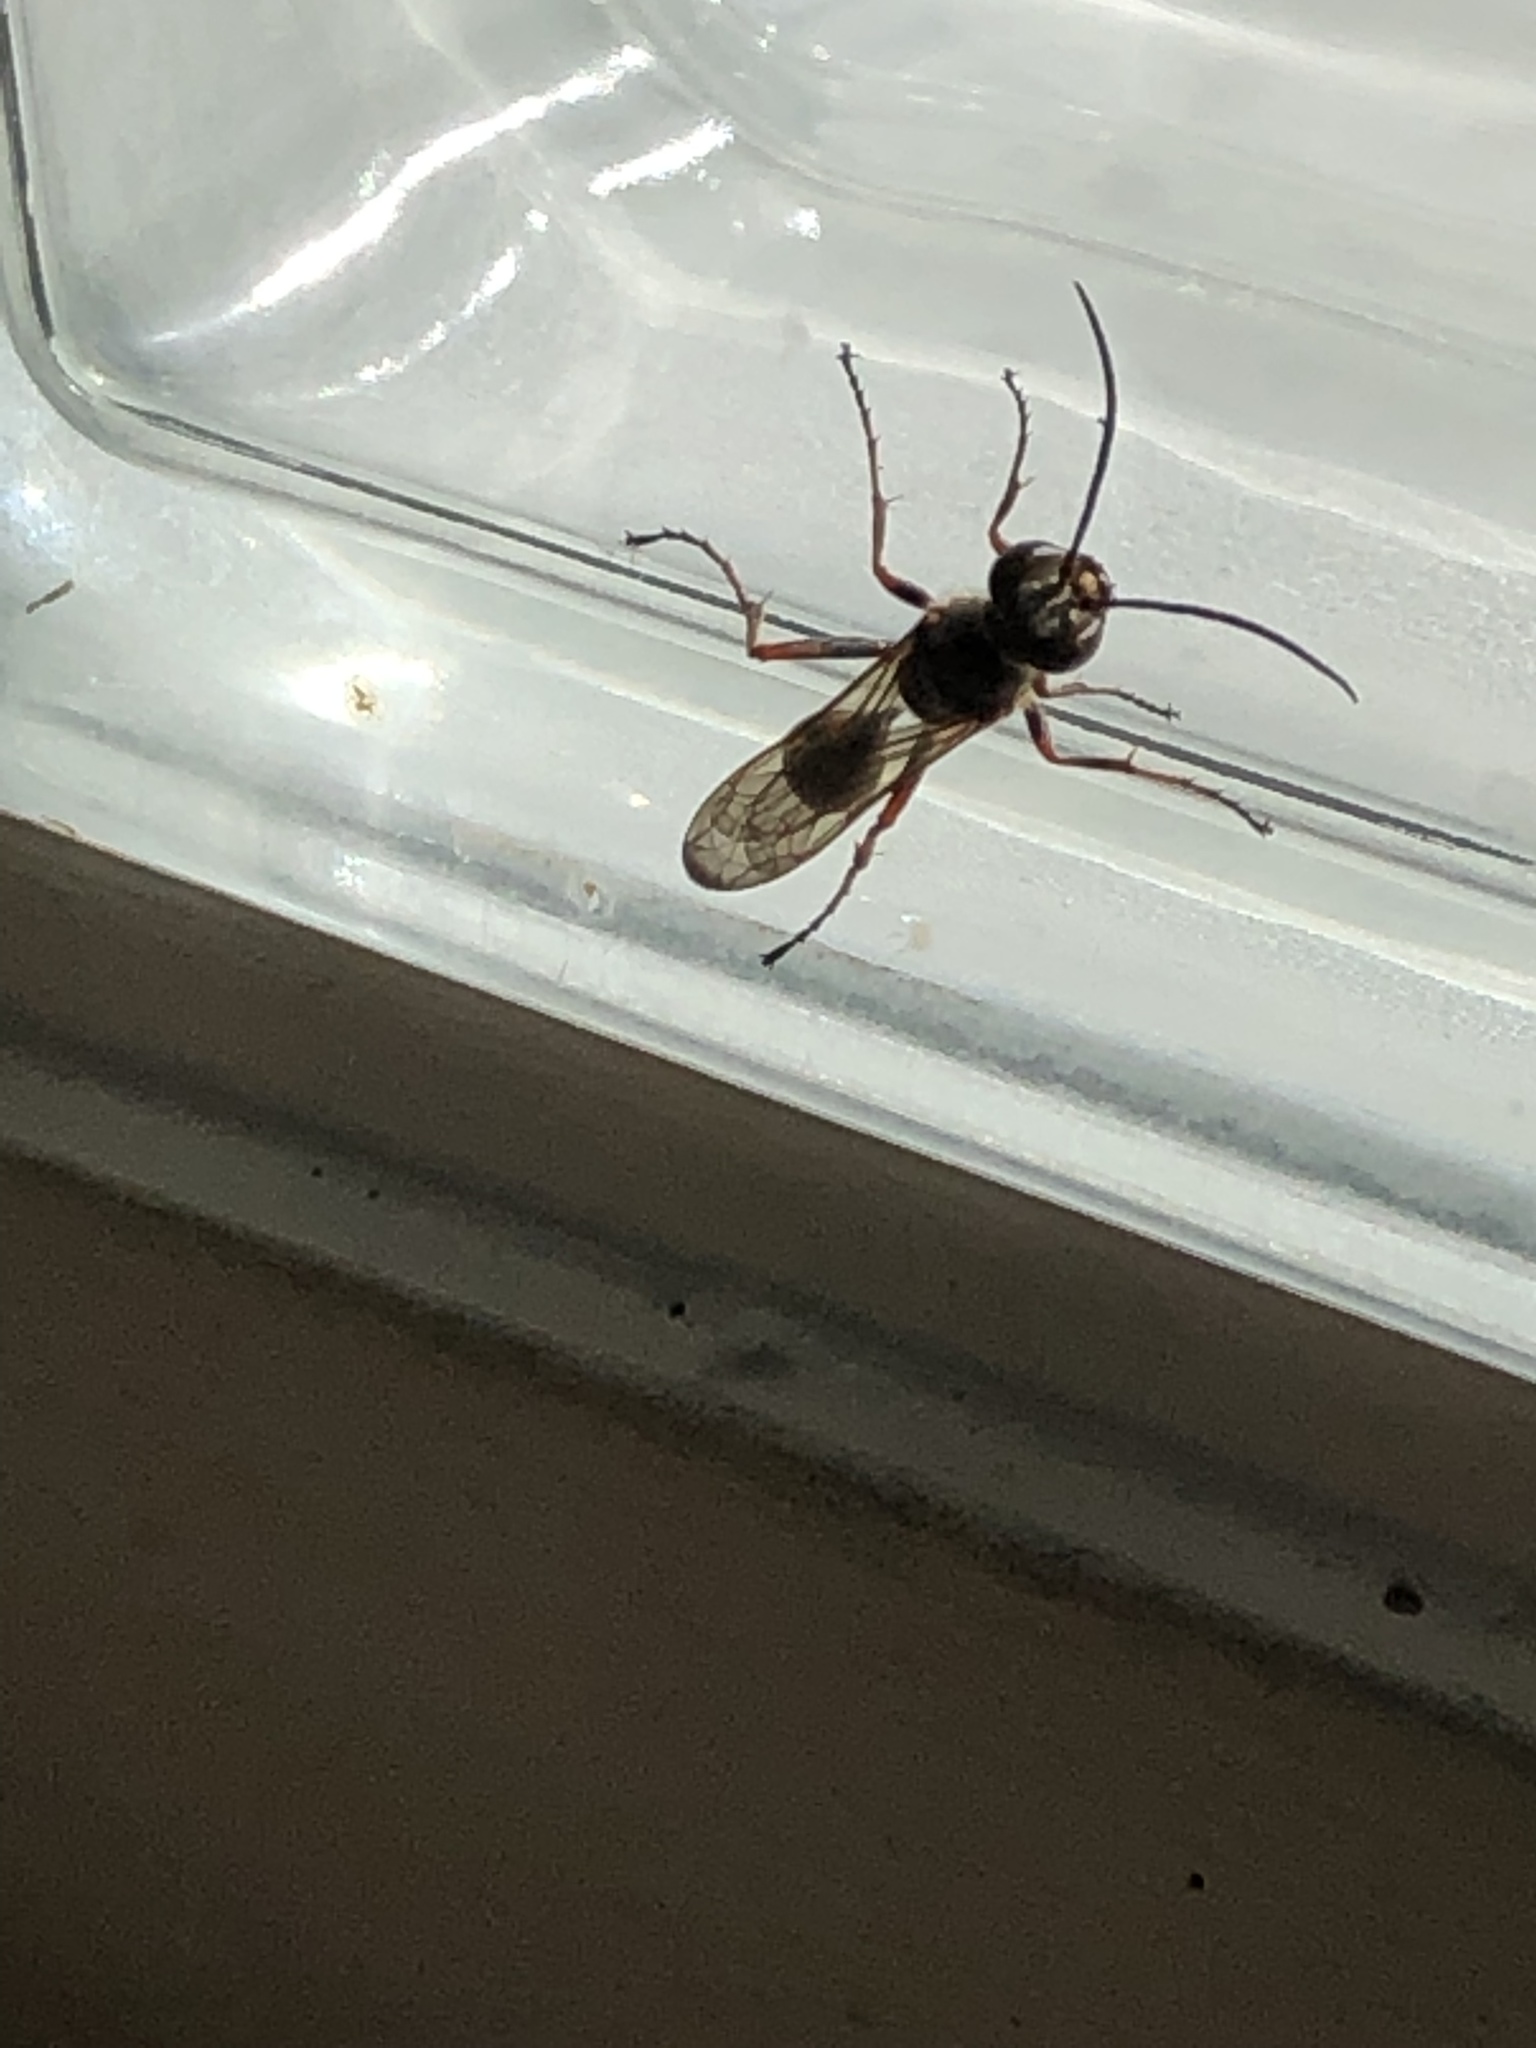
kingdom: Animalia
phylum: Arthropoda
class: Insecta
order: Hymenoptera
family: Sphecidae
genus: Sceliphron
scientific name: Sceliphron curvatum
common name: Pèlopèe
